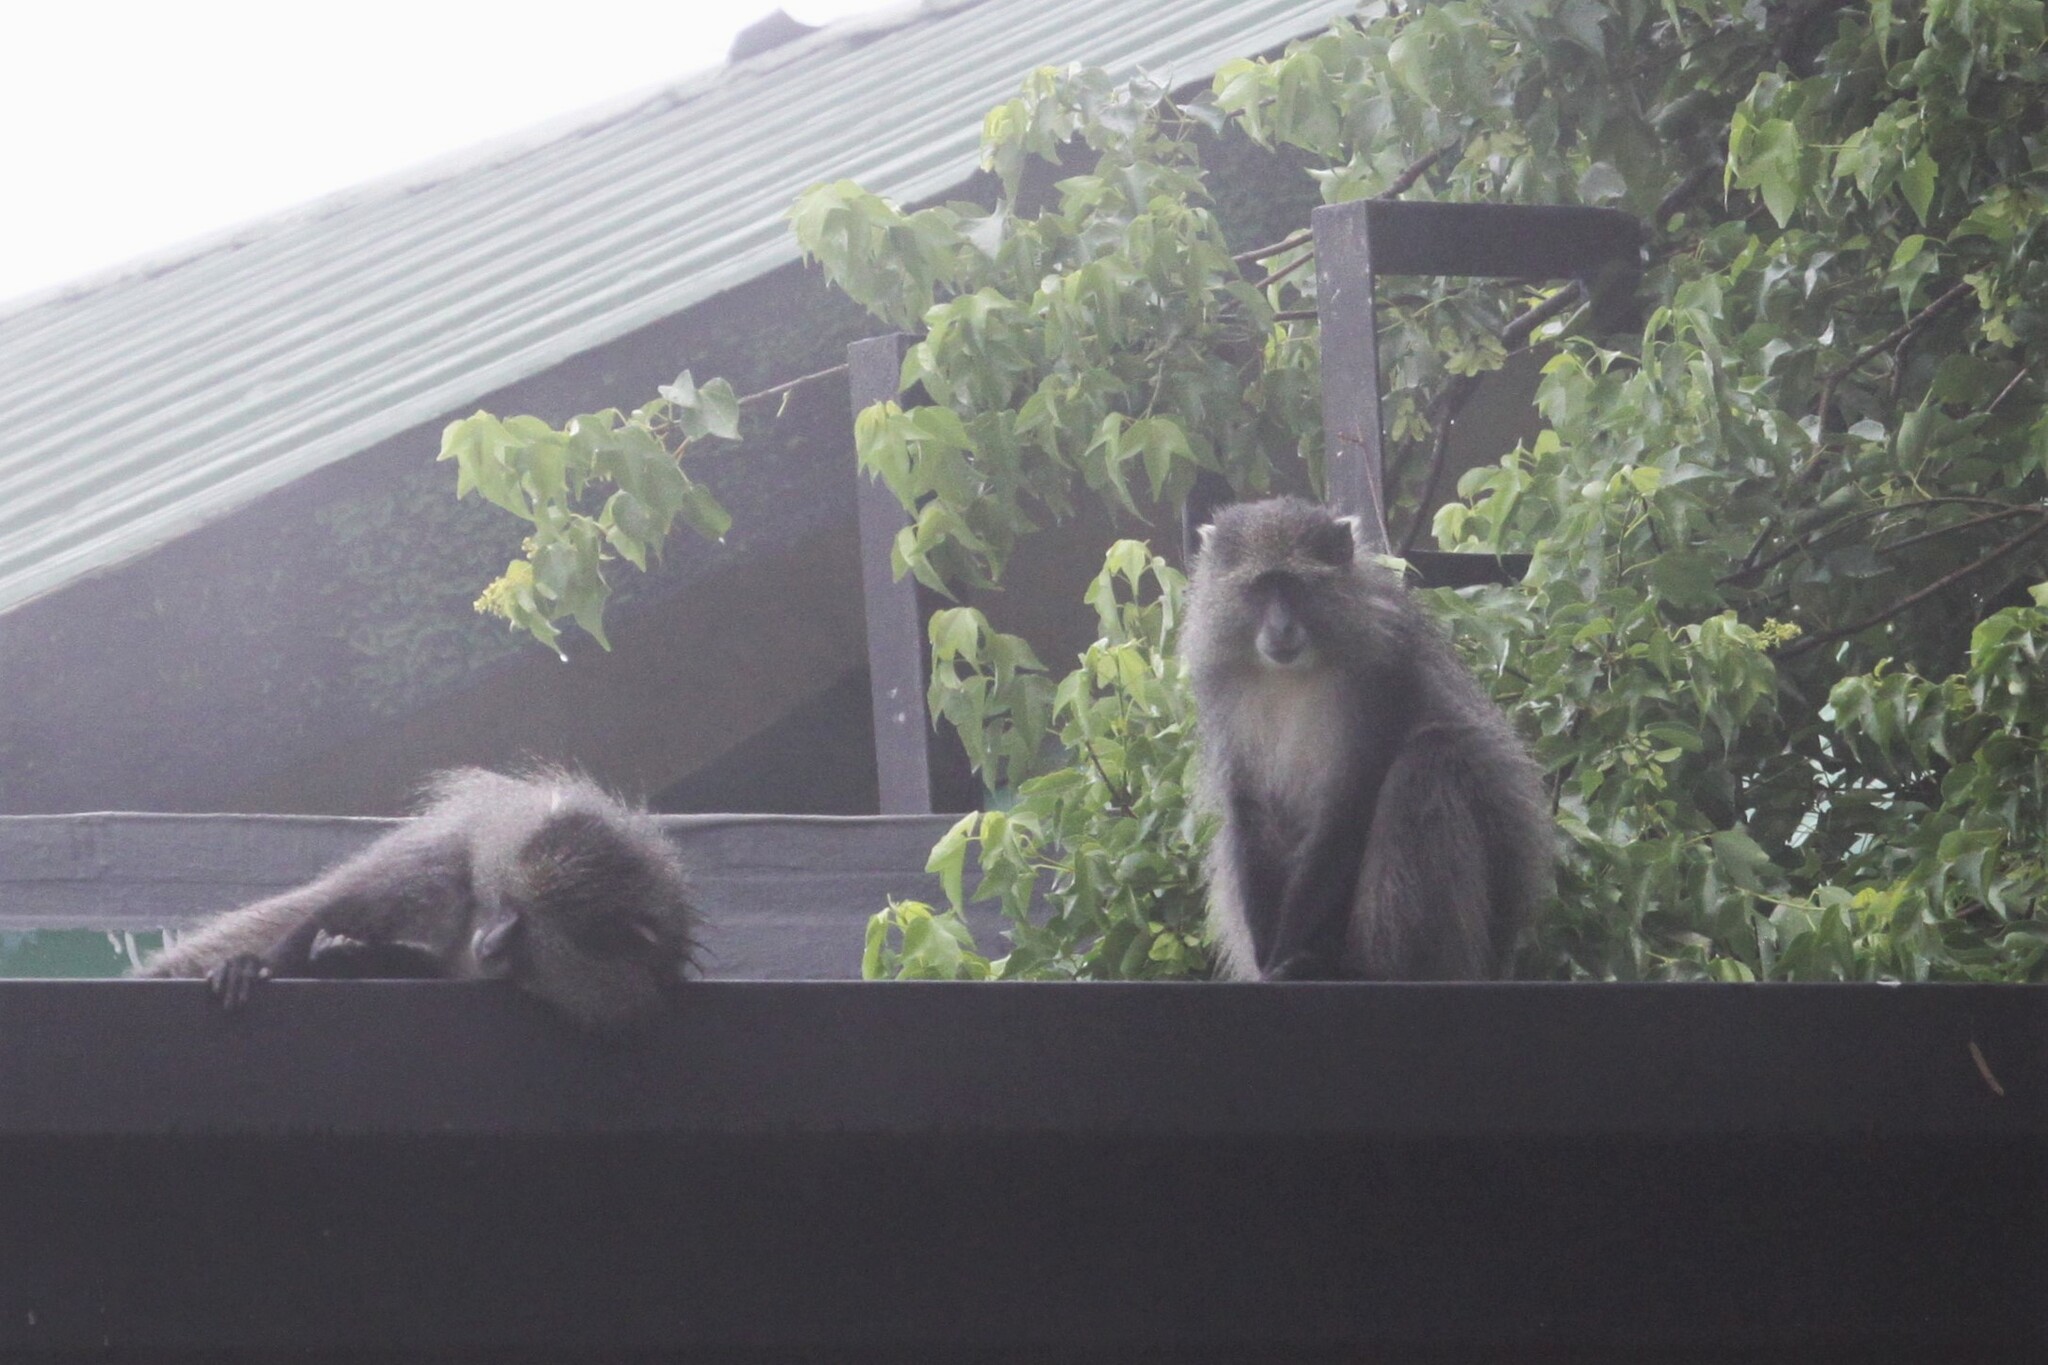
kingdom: Animalia
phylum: Chordata
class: Mammalia
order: Primates
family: Cercopithecidae
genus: Cercopithecus
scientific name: Cercopithecus mitis
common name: Blue monkey
